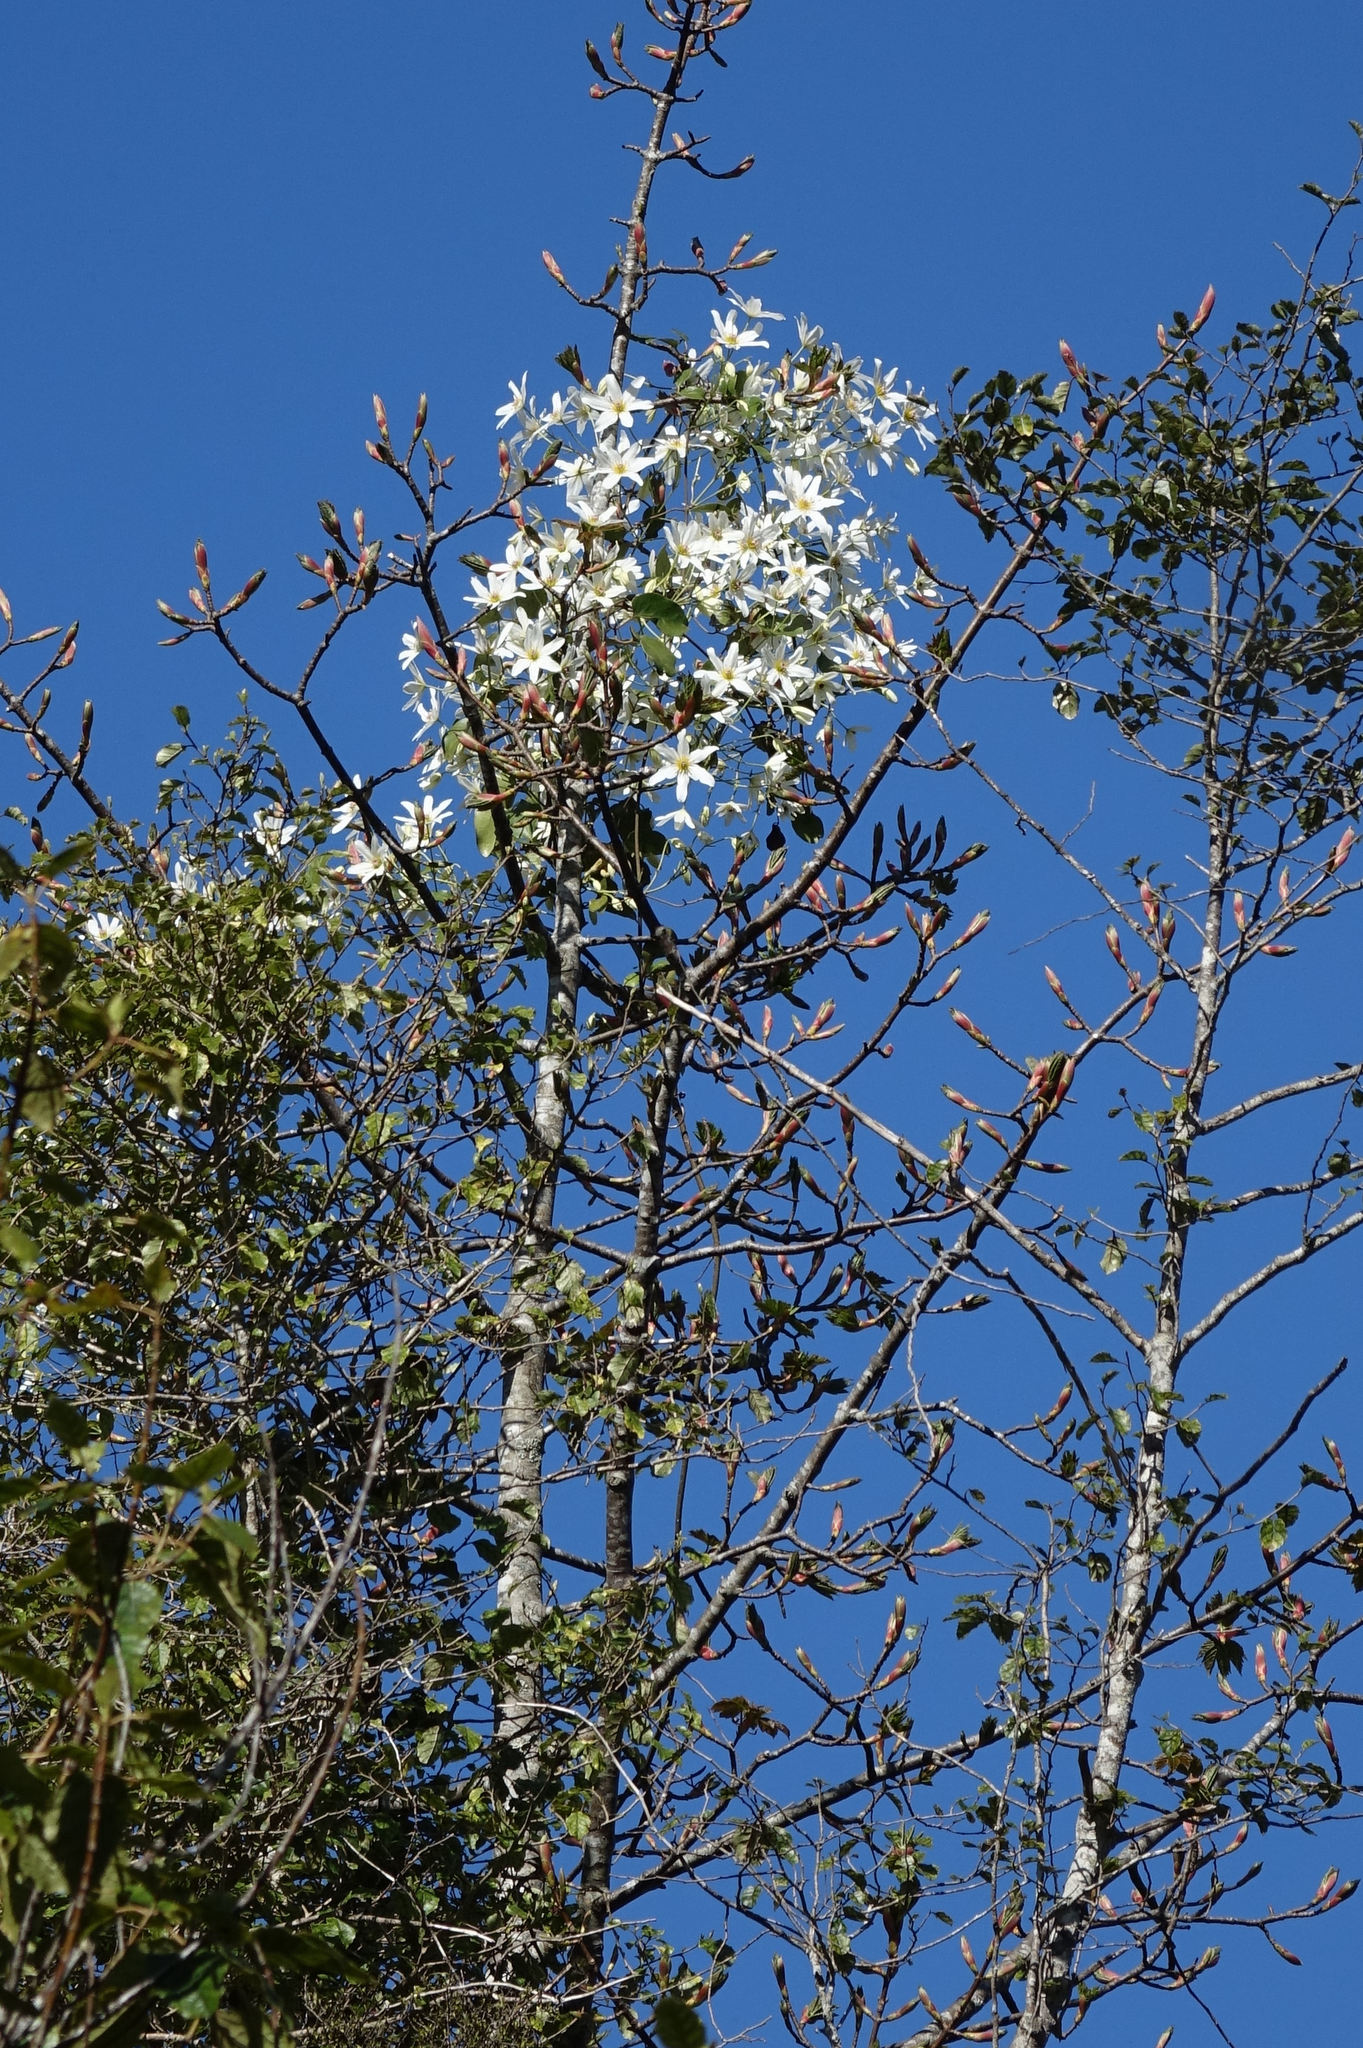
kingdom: Plantae
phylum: Tracheophyta
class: Magnoliopsida
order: Ranunculales
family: Ranunculaceae
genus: Clematis
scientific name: Clematis paniculata
